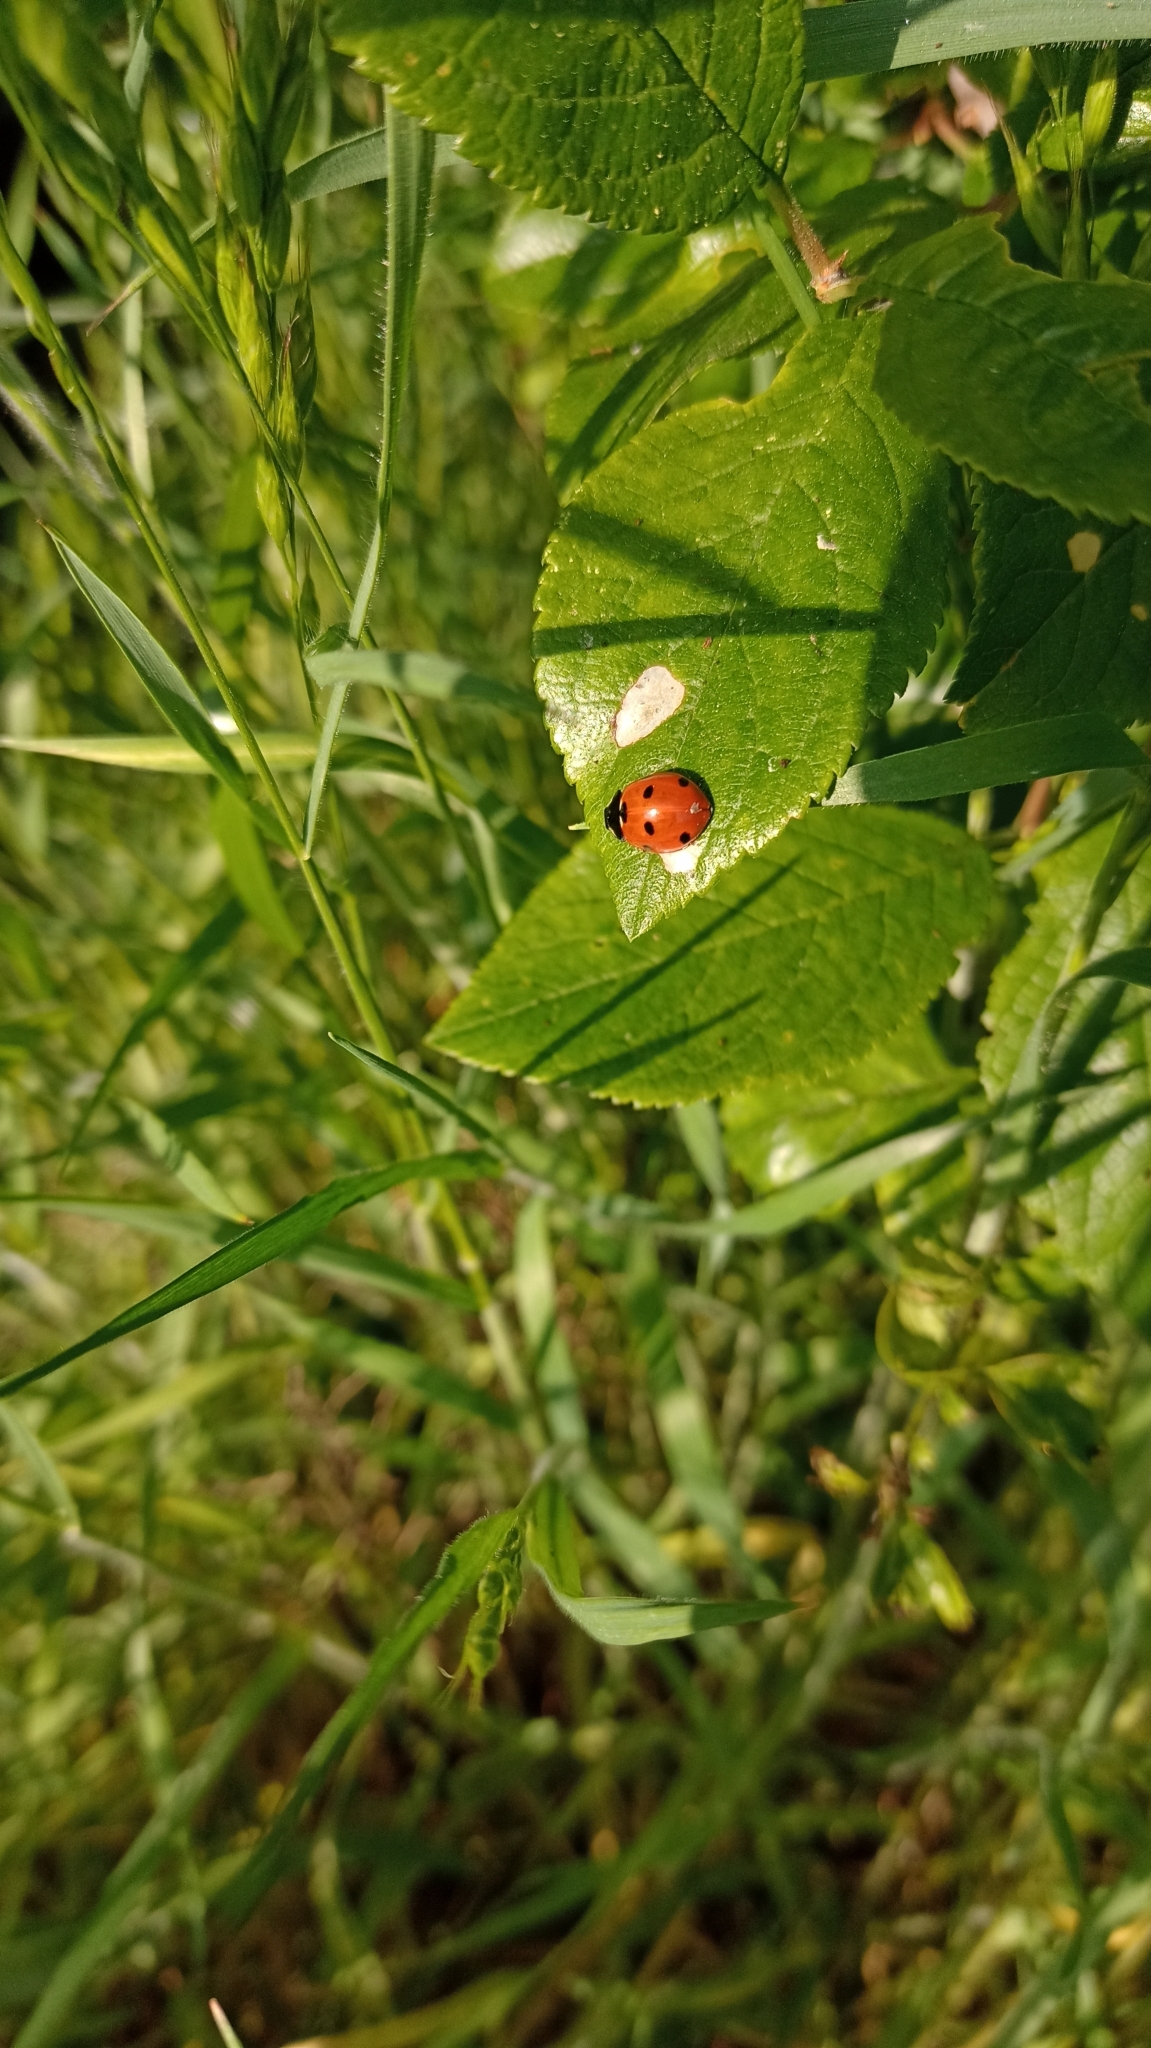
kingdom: Animalia
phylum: Arthropoda
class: Insecta
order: Coleoptera
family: Coccinellidae
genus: Coccinella
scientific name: Coccinella septempunctata
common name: Sevenspotted lady beetle
